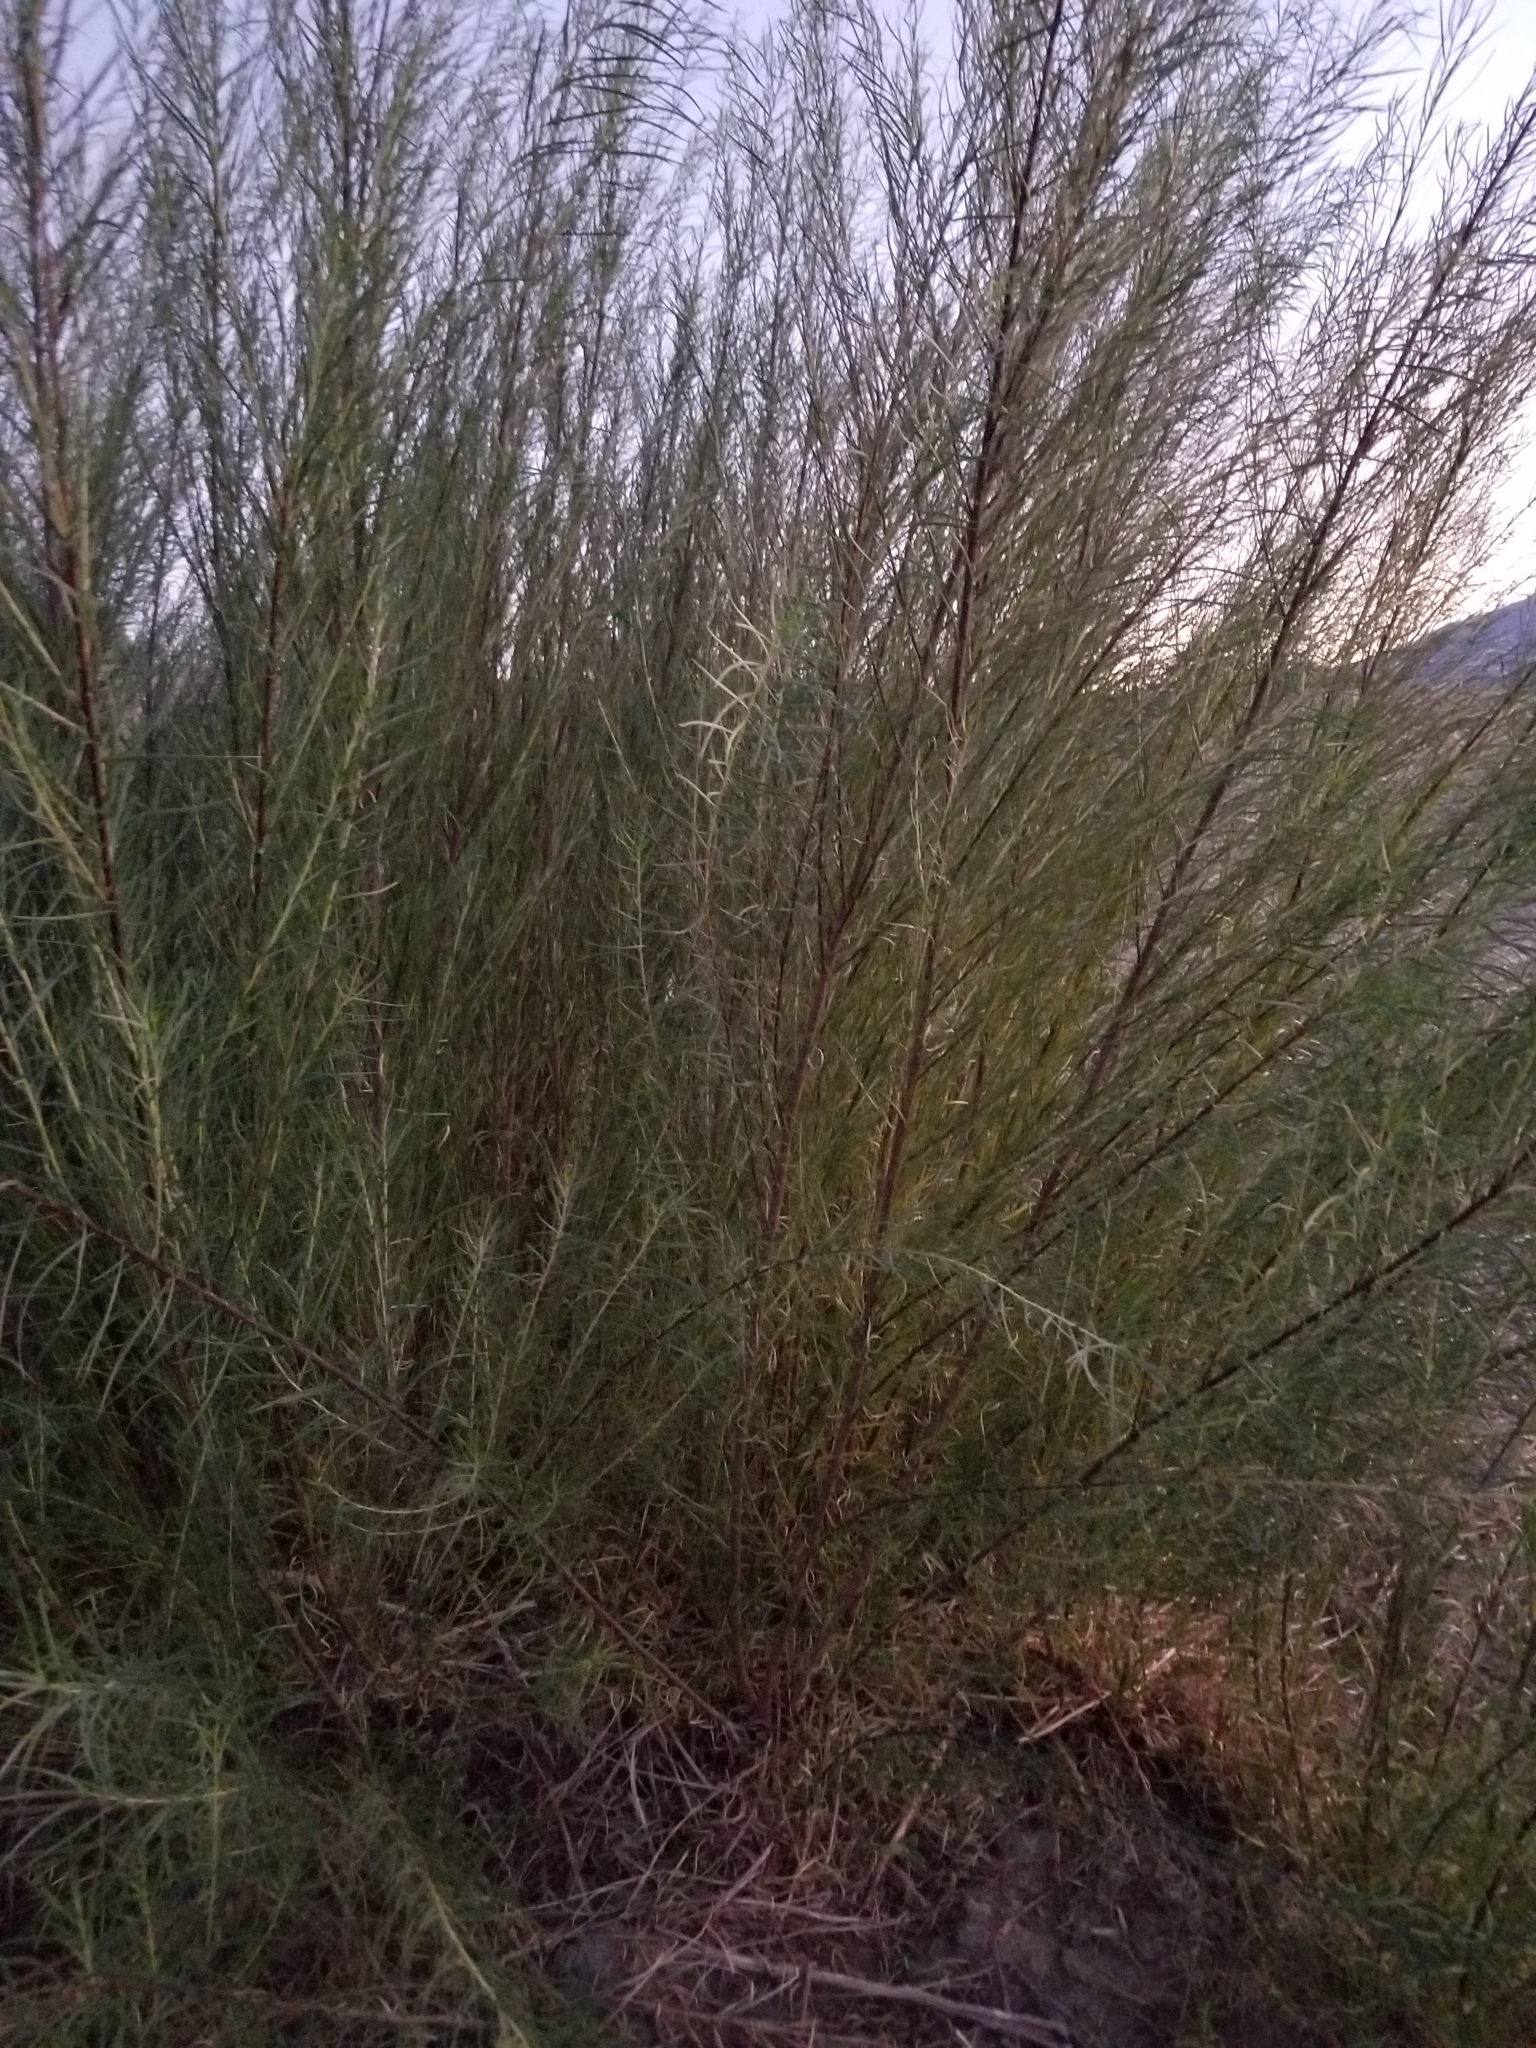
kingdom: Plantae
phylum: Tracheophyta
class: Magnoliopsida
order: Malpighiales
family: Salicaceae
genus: Salix
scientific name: Salix exigua
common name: Coyote willow
